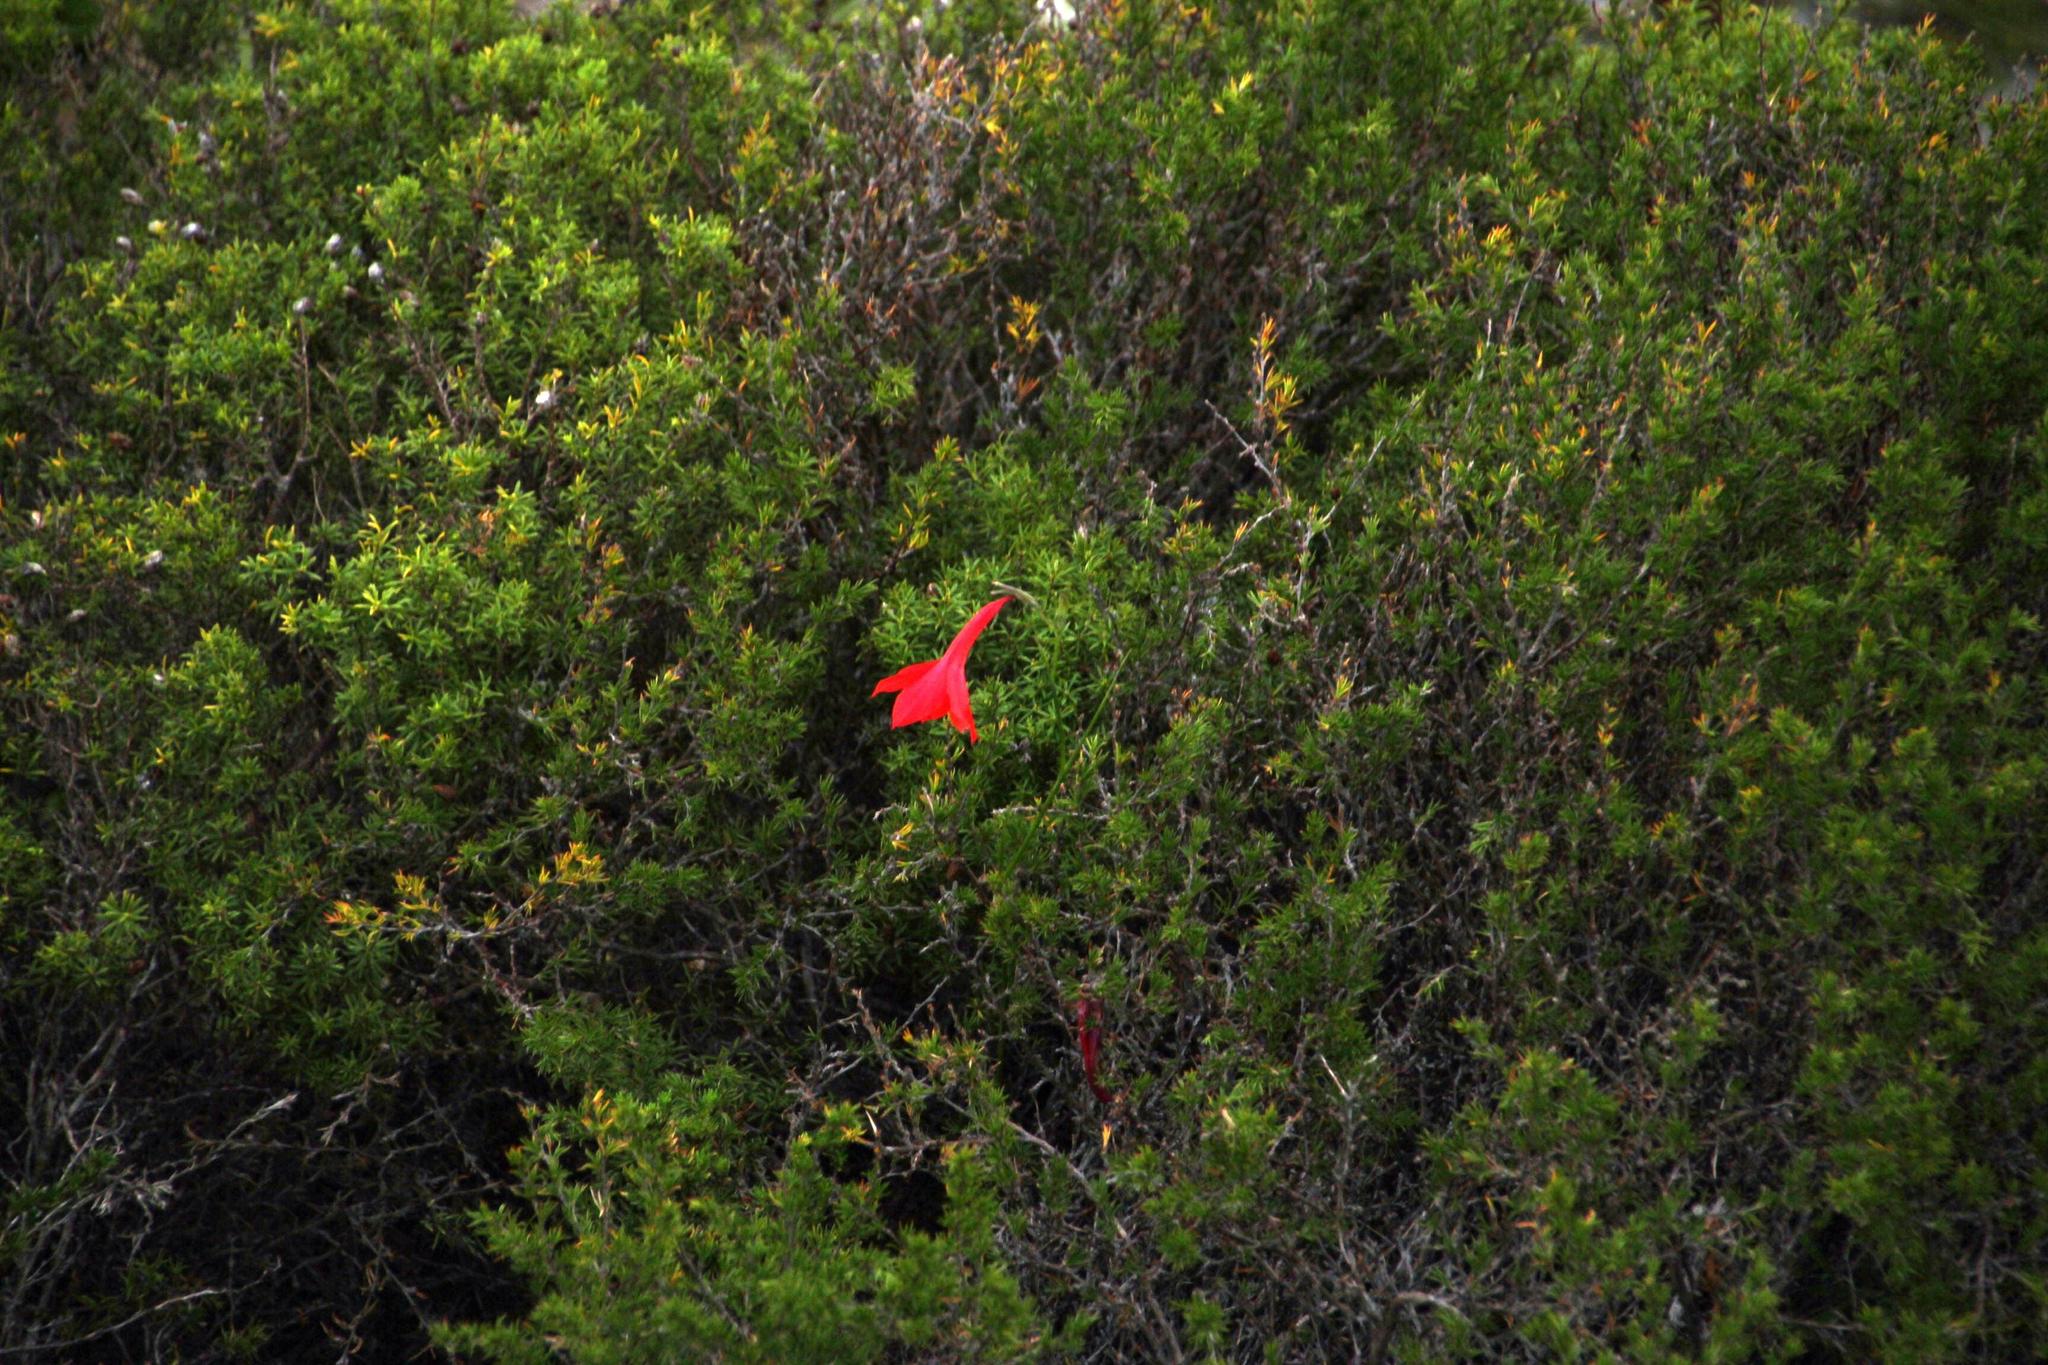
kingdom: Plantae
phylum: Tracheophyta
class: Liliopsida
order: Asparagales
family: Iridaceae
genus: Gladiolus
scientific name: Gladiolus priorii
